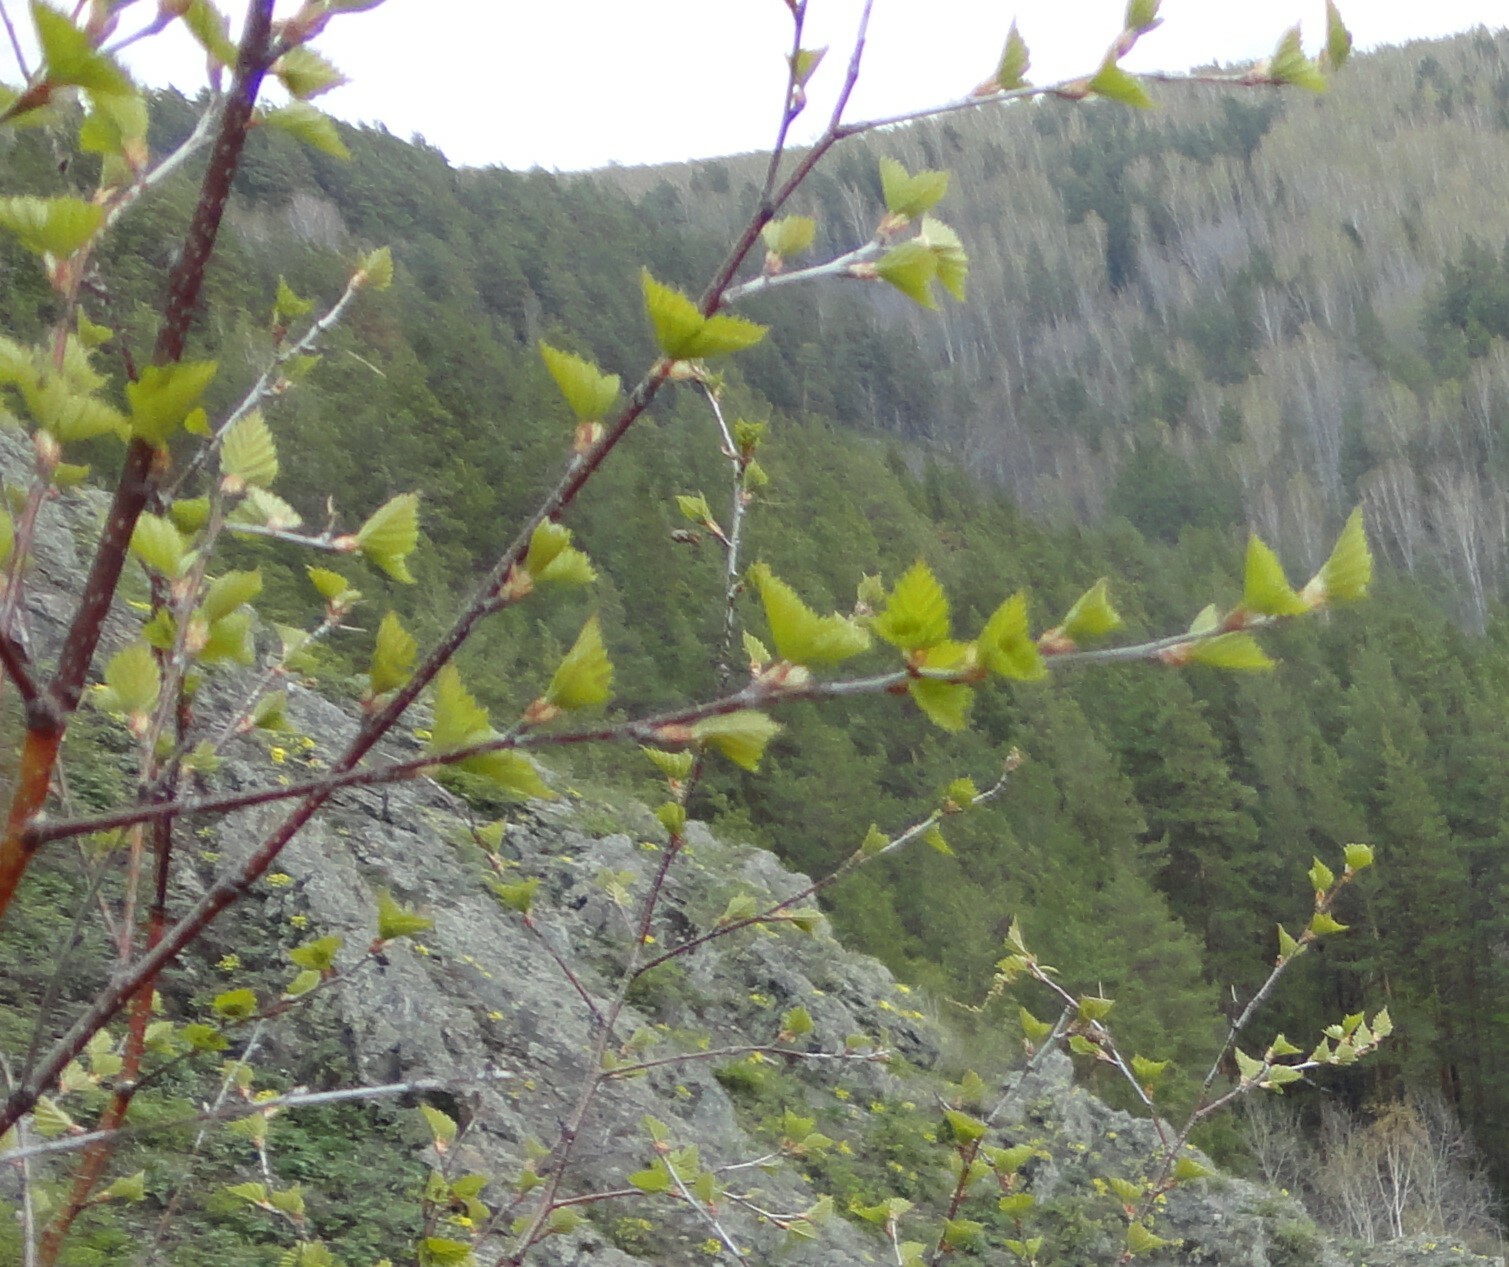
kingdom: Plantae
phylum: Tracheophyta
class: Magnoliopsida
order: Fagales
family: Betulaceae
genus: Betula
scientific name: Betula pendula
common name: Silver birch
